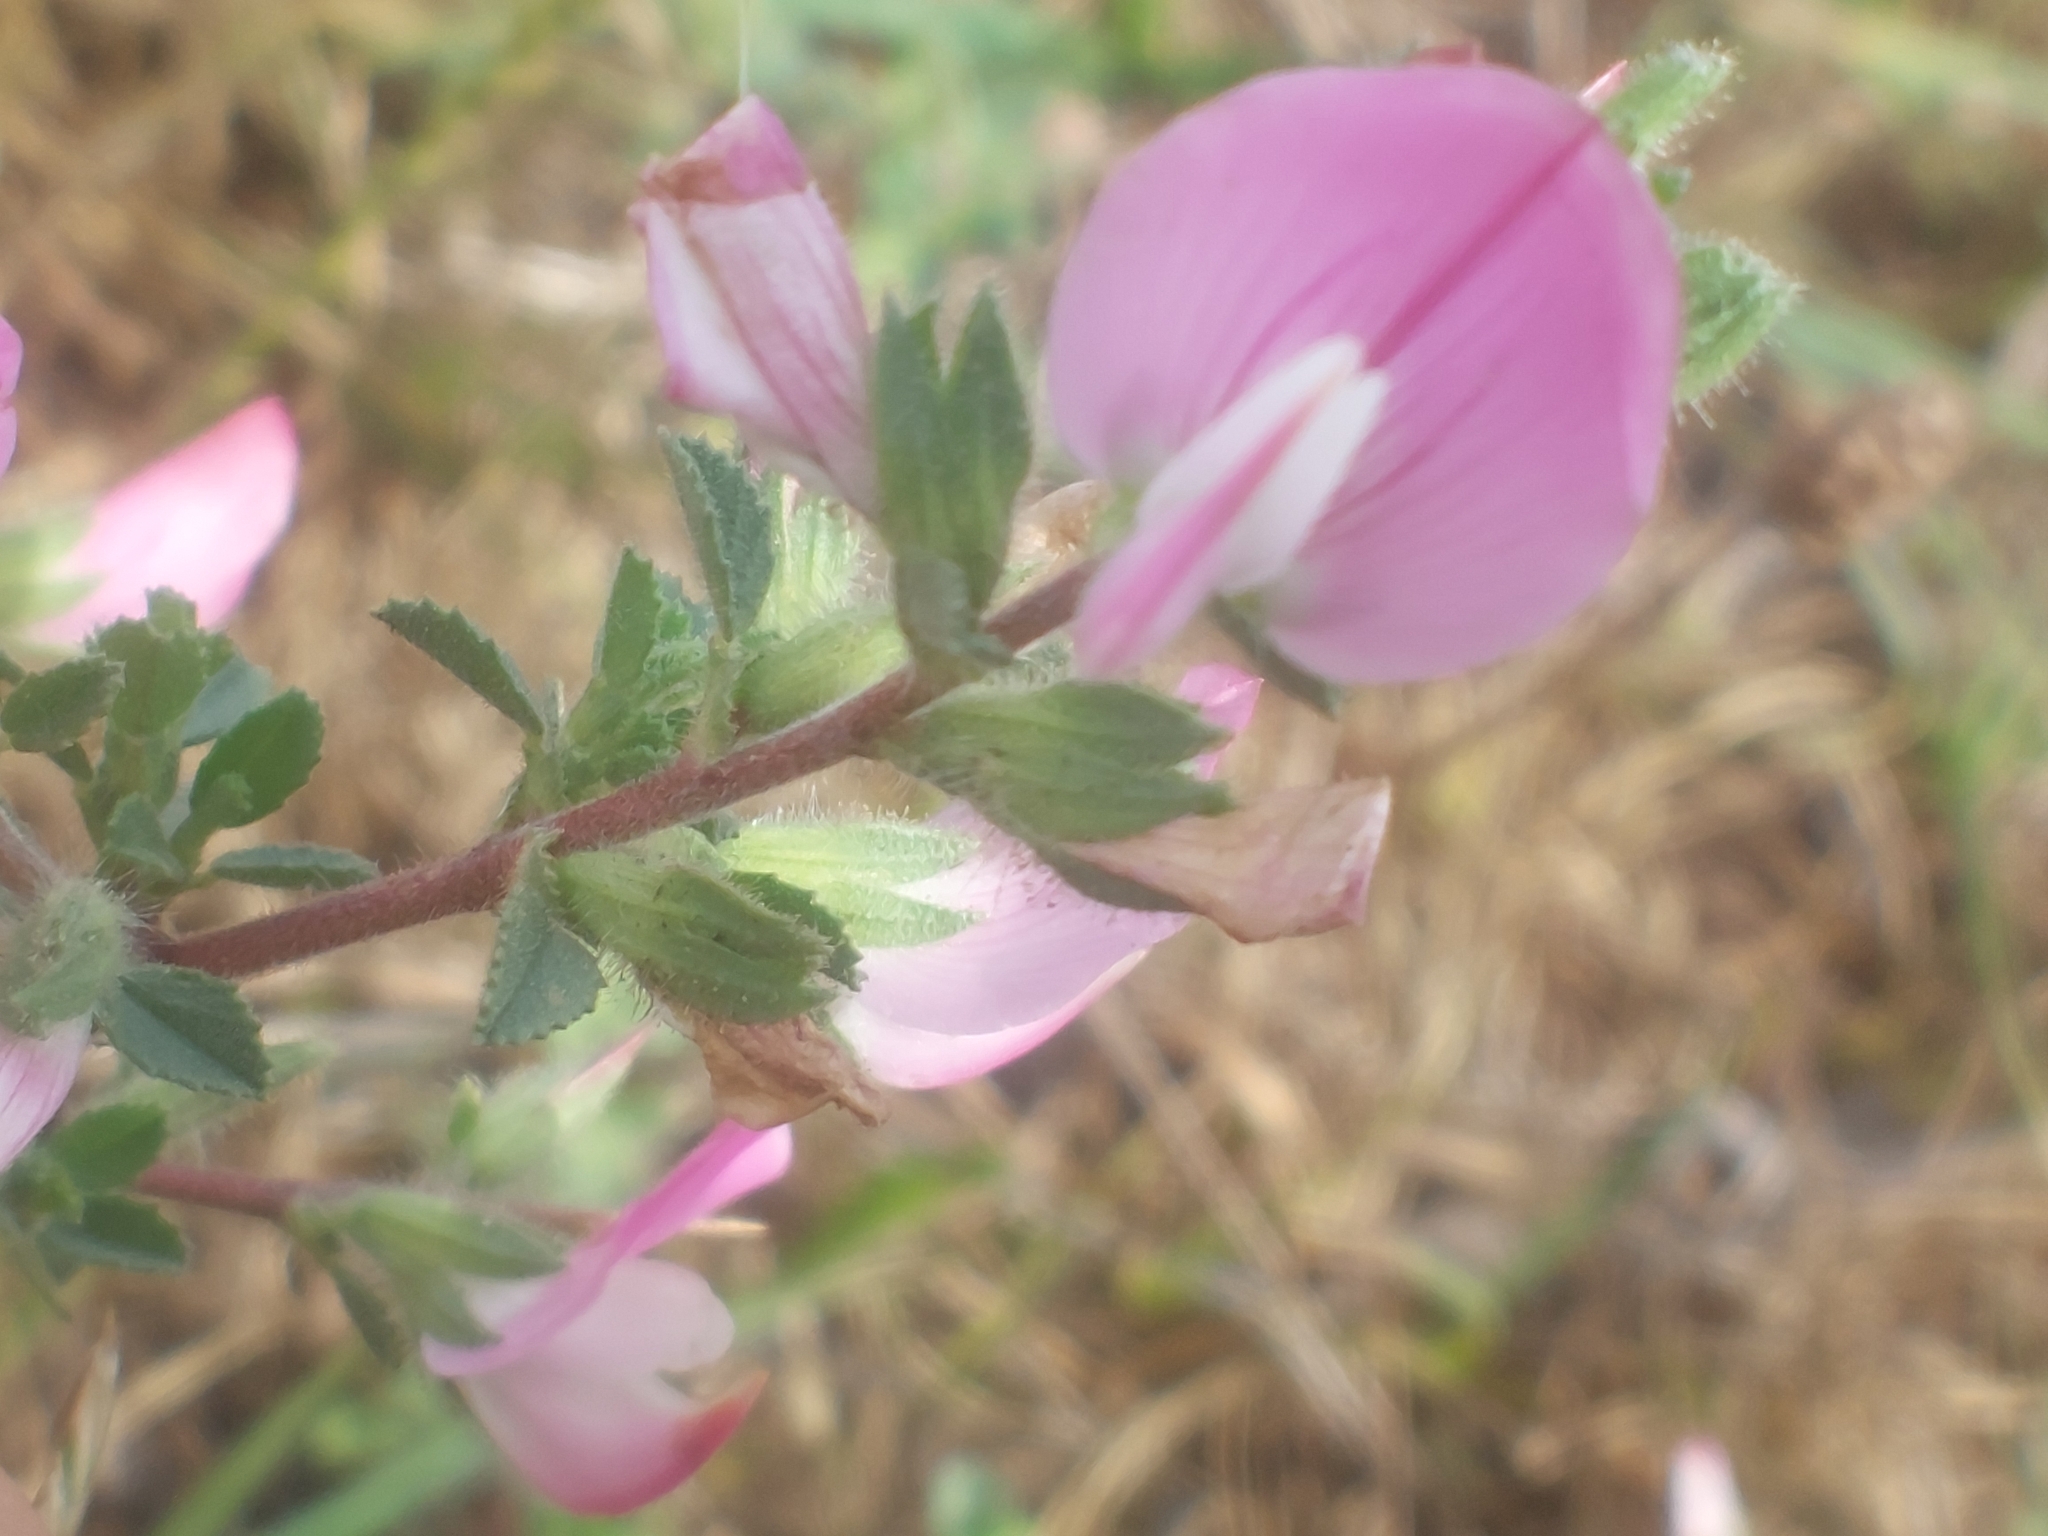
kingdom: Plantae
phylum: Tracheophyta
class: Magnoliopsida
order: Fabales
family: Fabaceae
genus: Ononis
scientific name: Ononis spinosa
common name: Spiny restharrow
